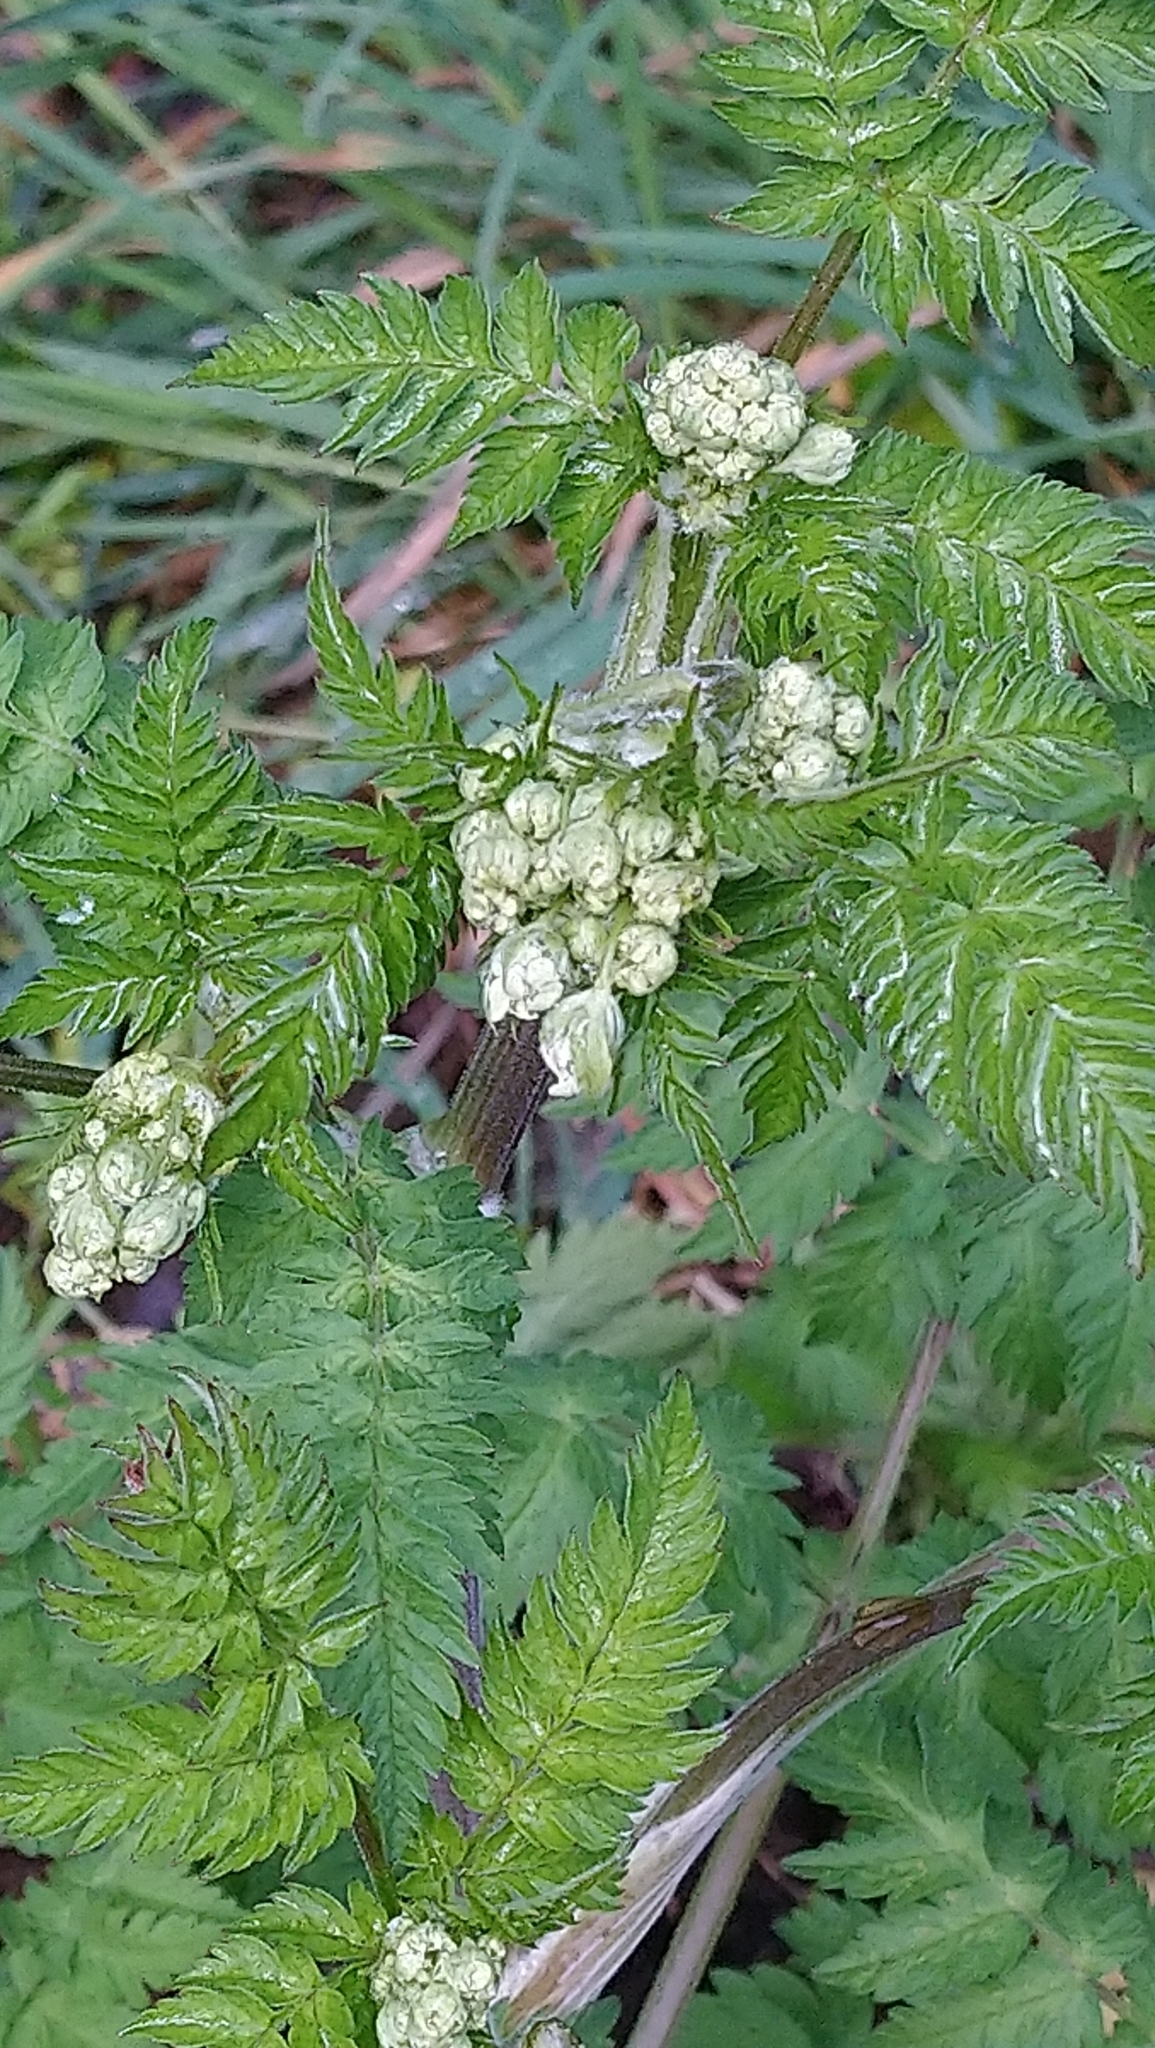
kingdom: Plantae
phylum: Tracheophyta
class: Magnoliopsida
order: Apiales
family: Apiaceae
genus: Anthriscus
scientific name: Anthriscus sylvestris
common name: Cow parsley
